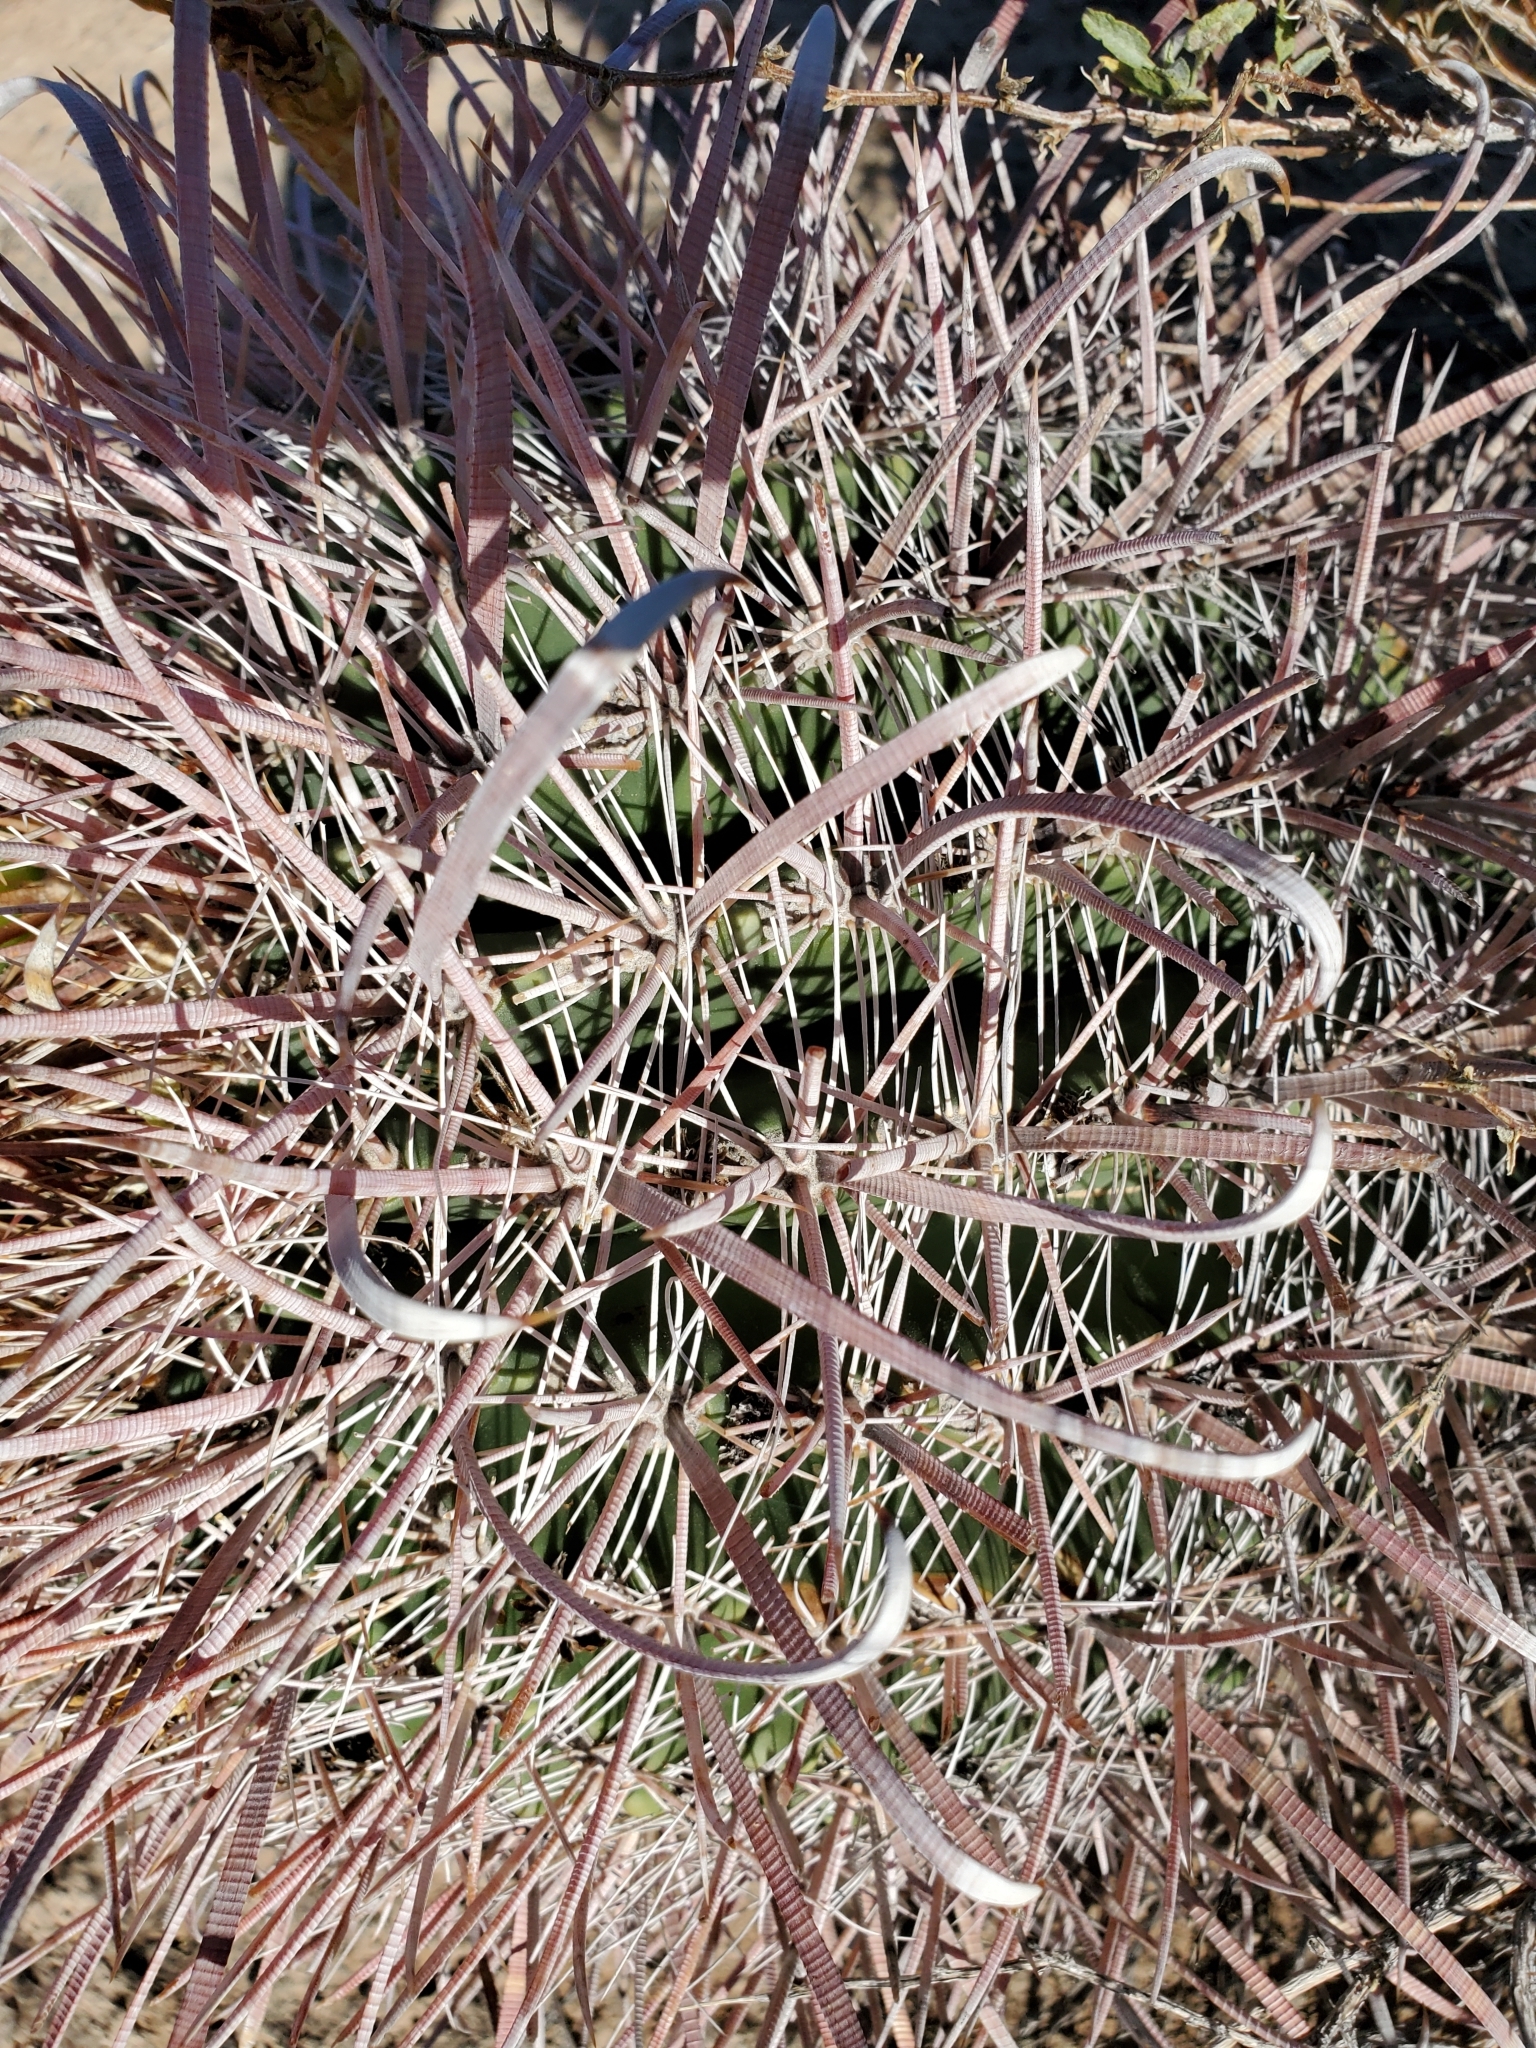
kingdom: Plantae
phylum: Tracheophyta
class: Magnoliopsida
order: Caryophyllales
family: Cactaceae
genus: Ferocactus
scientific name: Ferocactus cylindraceus
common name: California barrel cactus
